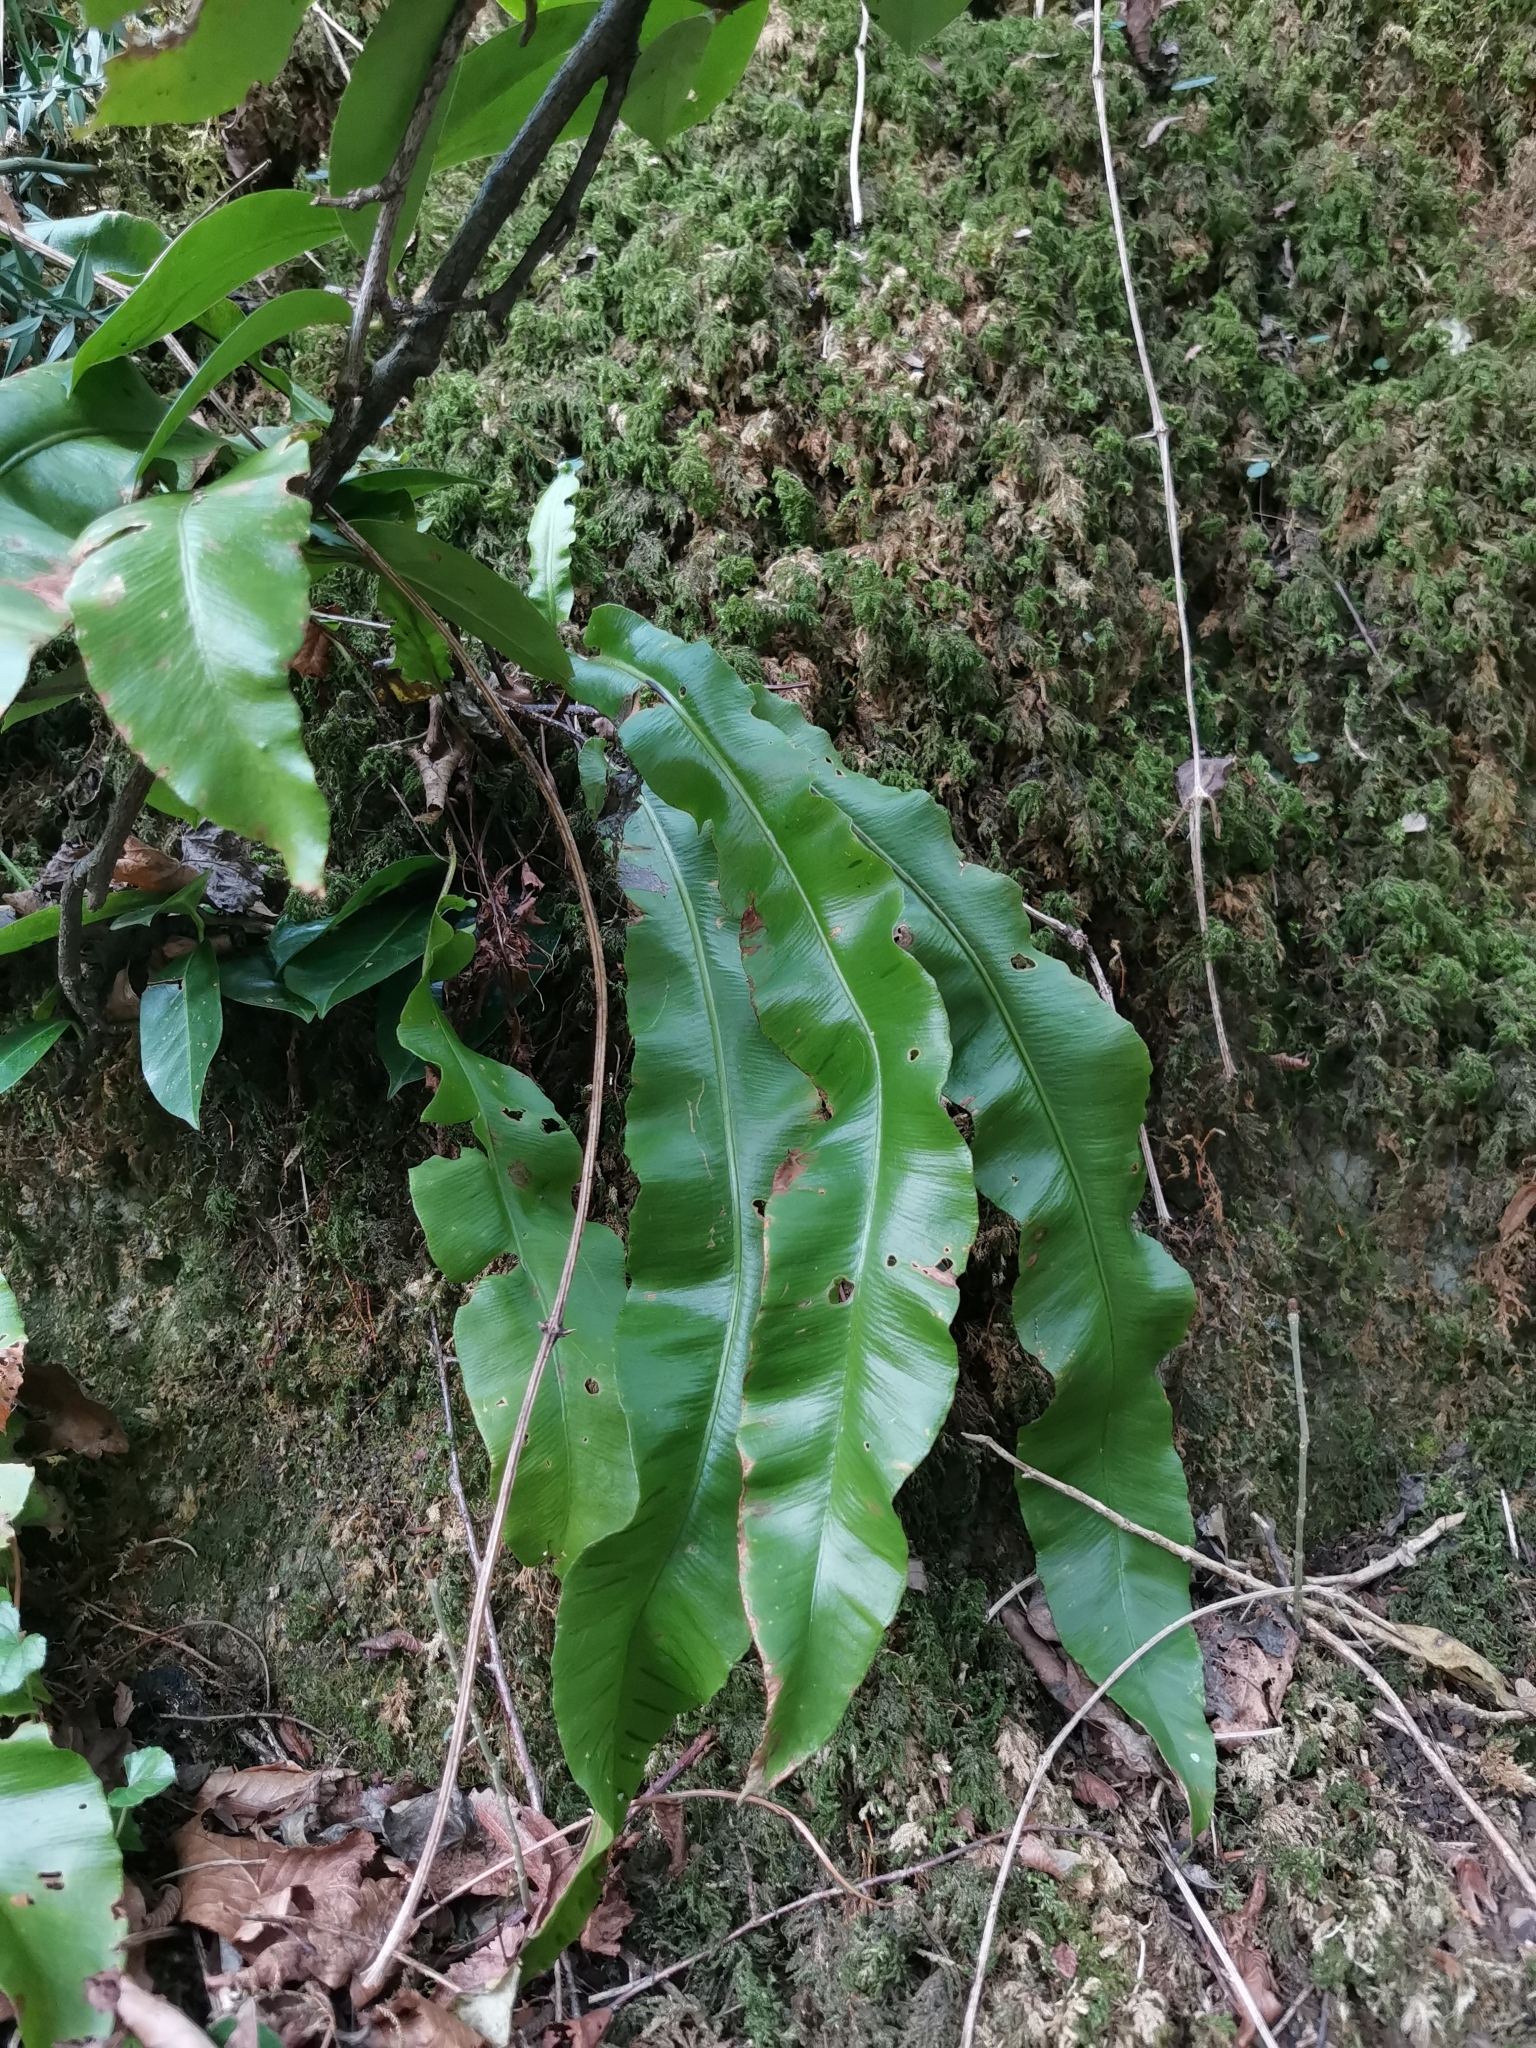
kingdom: Plantae
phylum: Tracheophyta
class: Polypodiopsida
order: Polypodiales
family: Aspleniaceae
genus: Asplenium
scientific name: Asplenium scolopendrium
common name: Hart's-tongue fern
